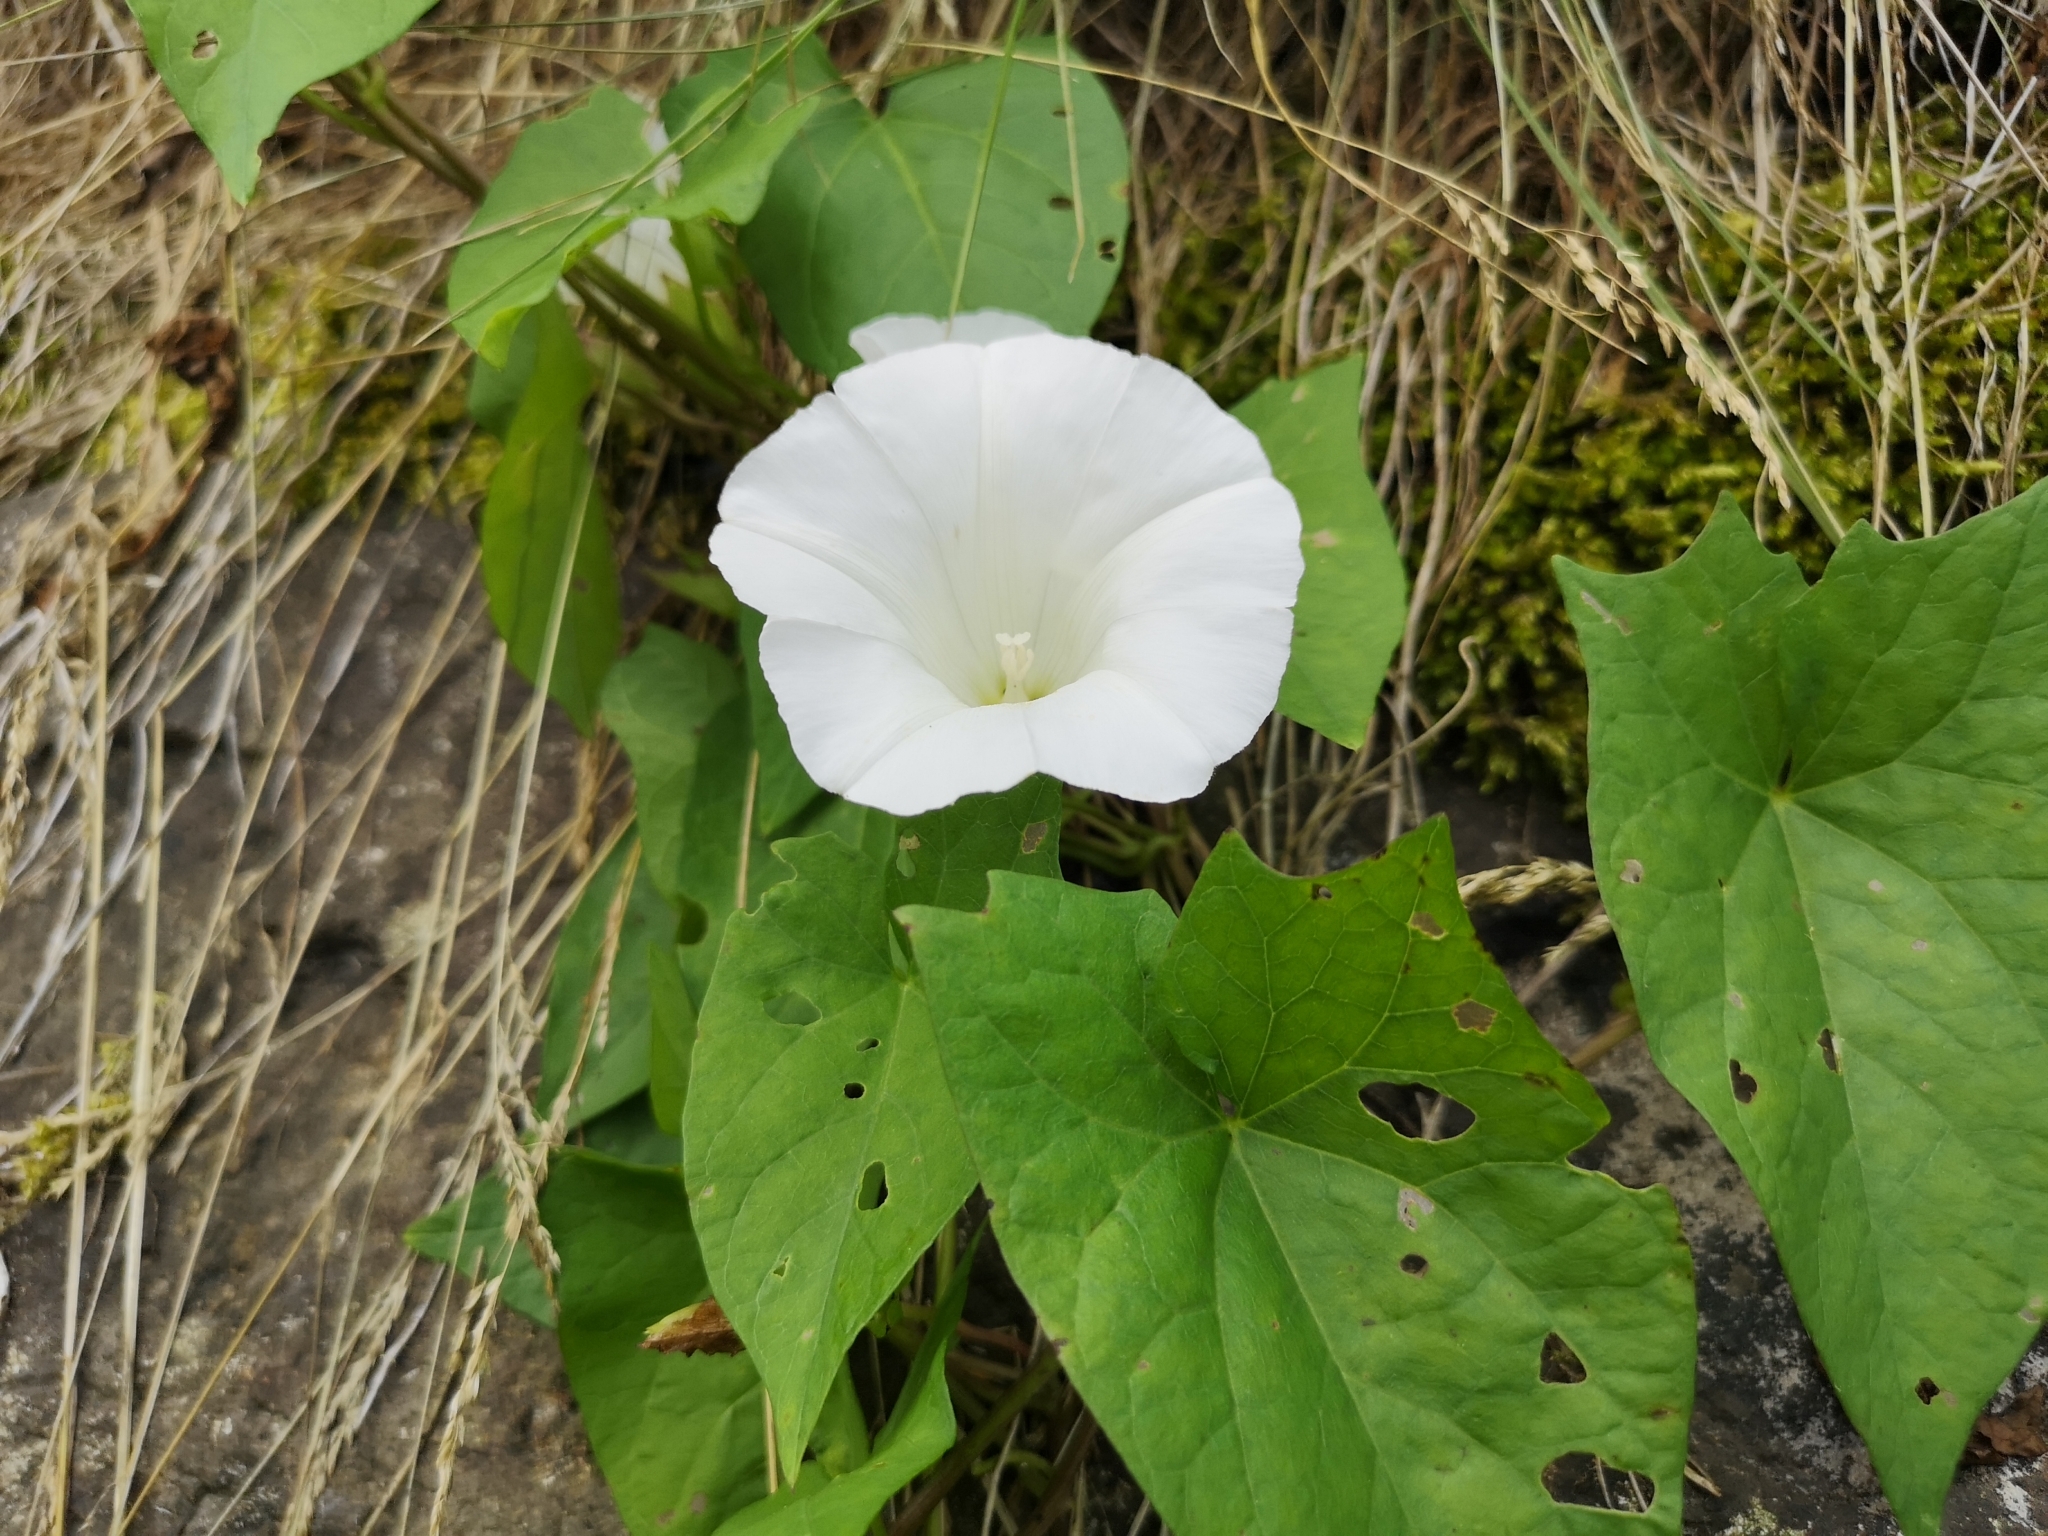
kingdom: Plantae
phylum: Tracheophyta
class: Magnoliopsida
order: Solanales
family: Convolvulaceae
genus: Calystegia
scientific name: Calystegia sepium
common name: Hedge bindweed
